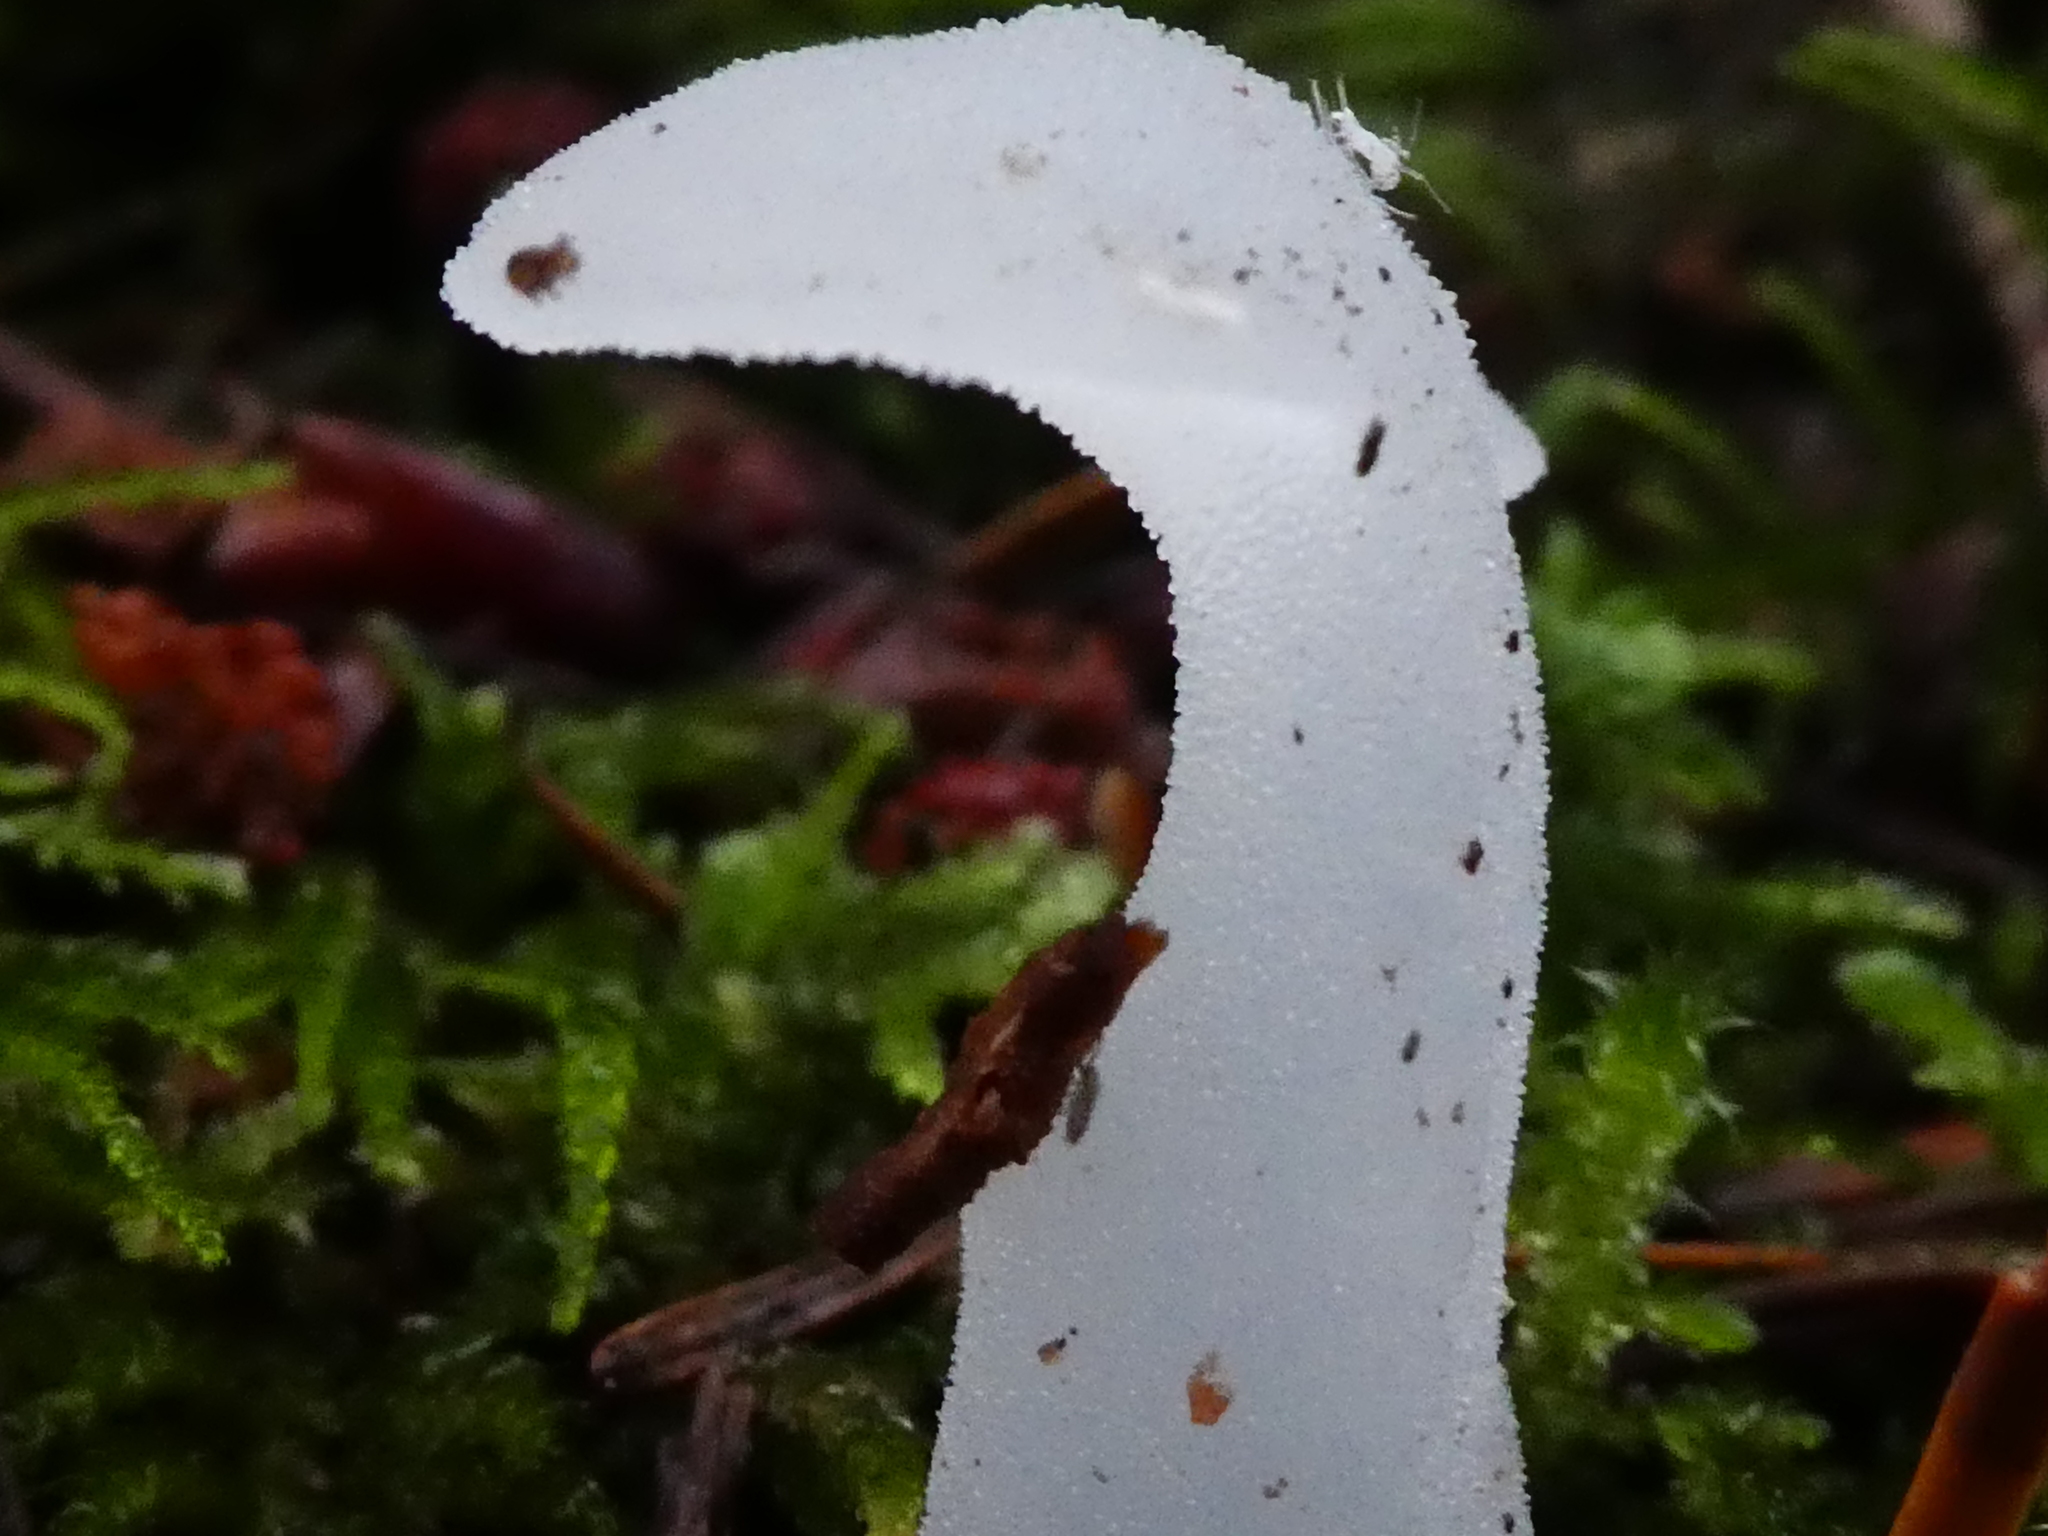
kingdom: Fungi
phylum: Basidiomycota
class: Agaricomycetes
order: Auriculariales
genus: Pseudohydnum
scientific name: Pseudohydnum gelatinosum
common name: Jelly tongue
